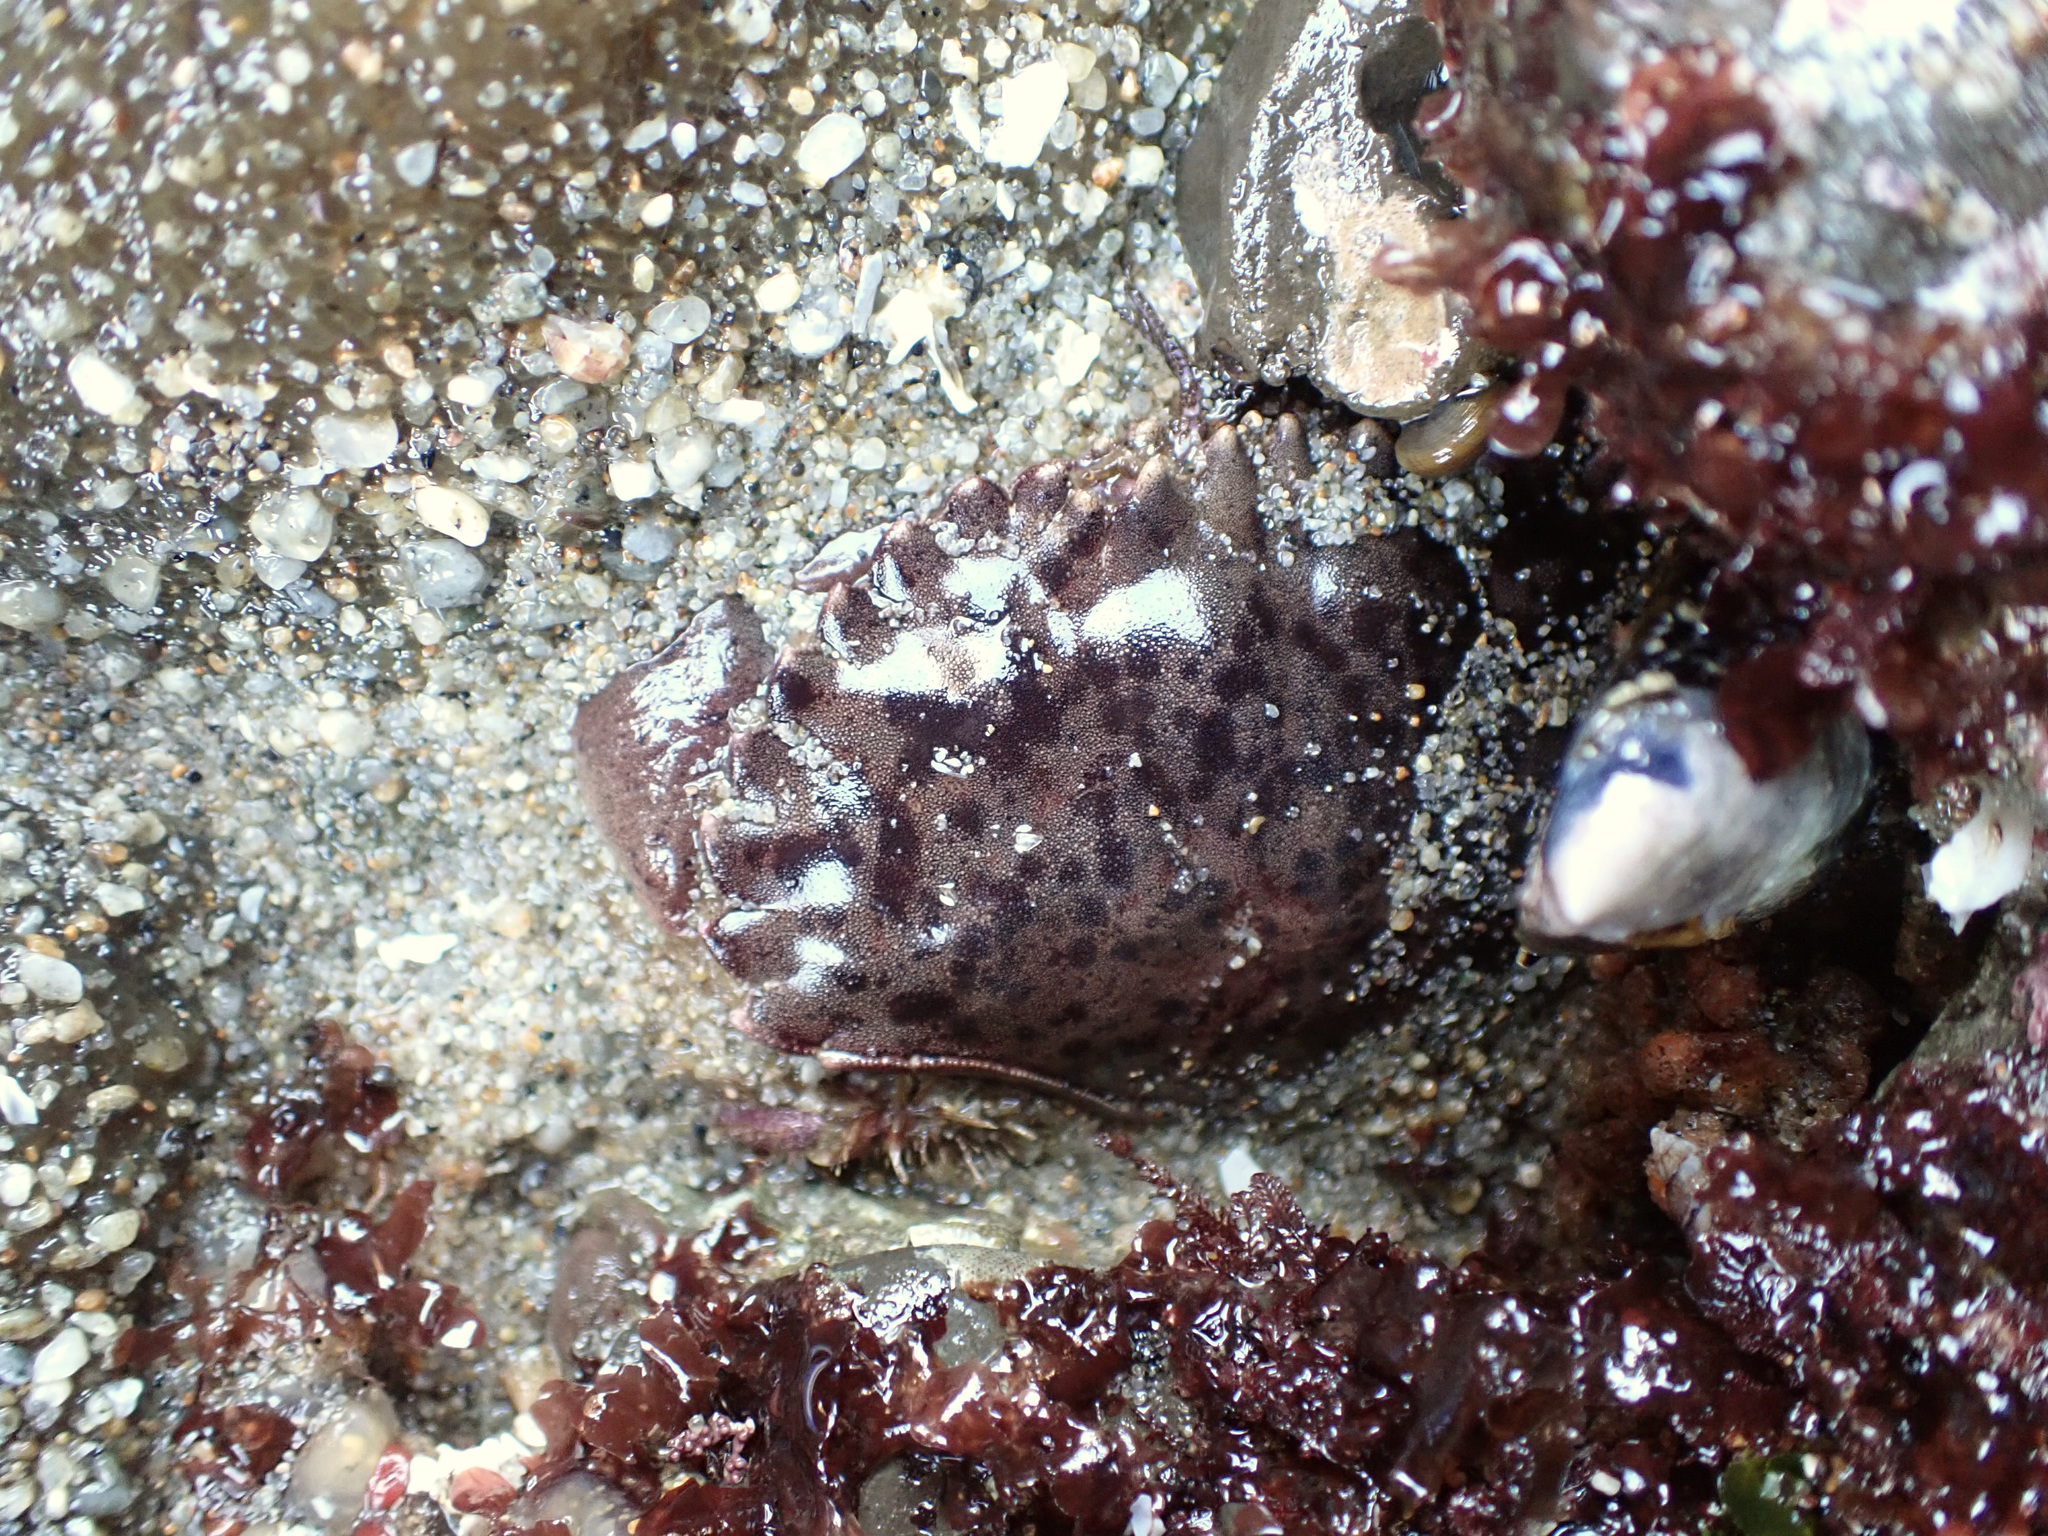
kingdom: Animalia
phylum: Arthropoda
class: Malacostraca
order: Decapoda
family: Cancridae
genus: Romaleon
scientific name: Romaleon antennarium
